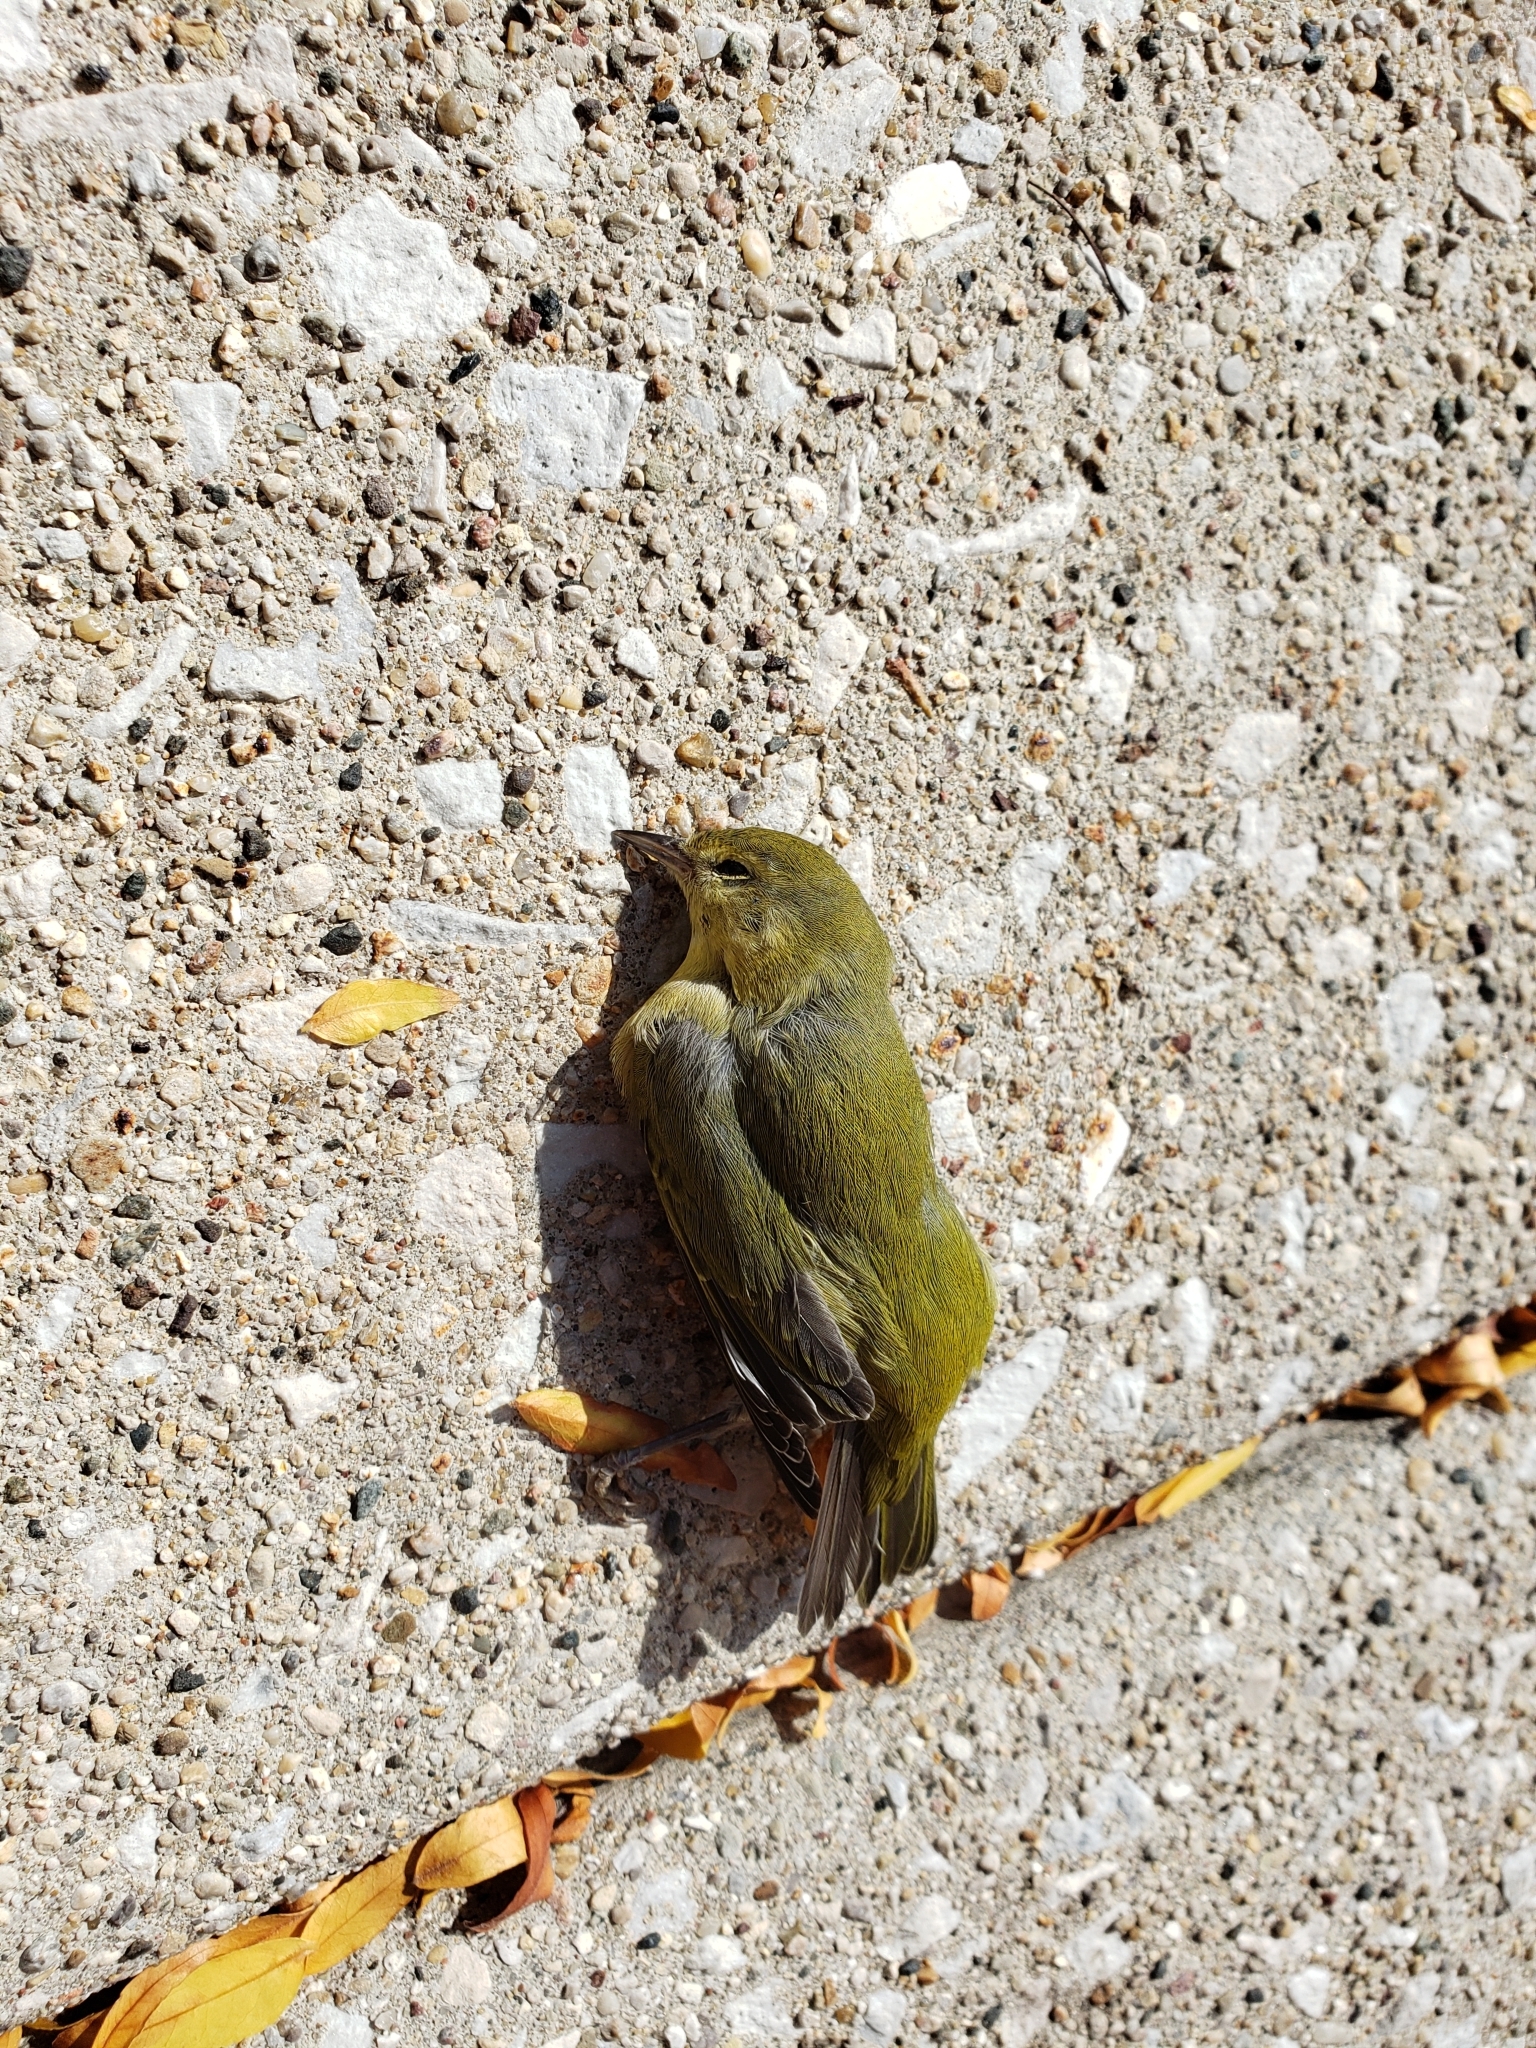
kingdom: Animalia
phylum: Chordata
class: Aves
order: Passeriformes
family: Parulidae
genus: Leiothlypis
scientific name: Leiothlypis peregrina
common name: Tennessee warbler
